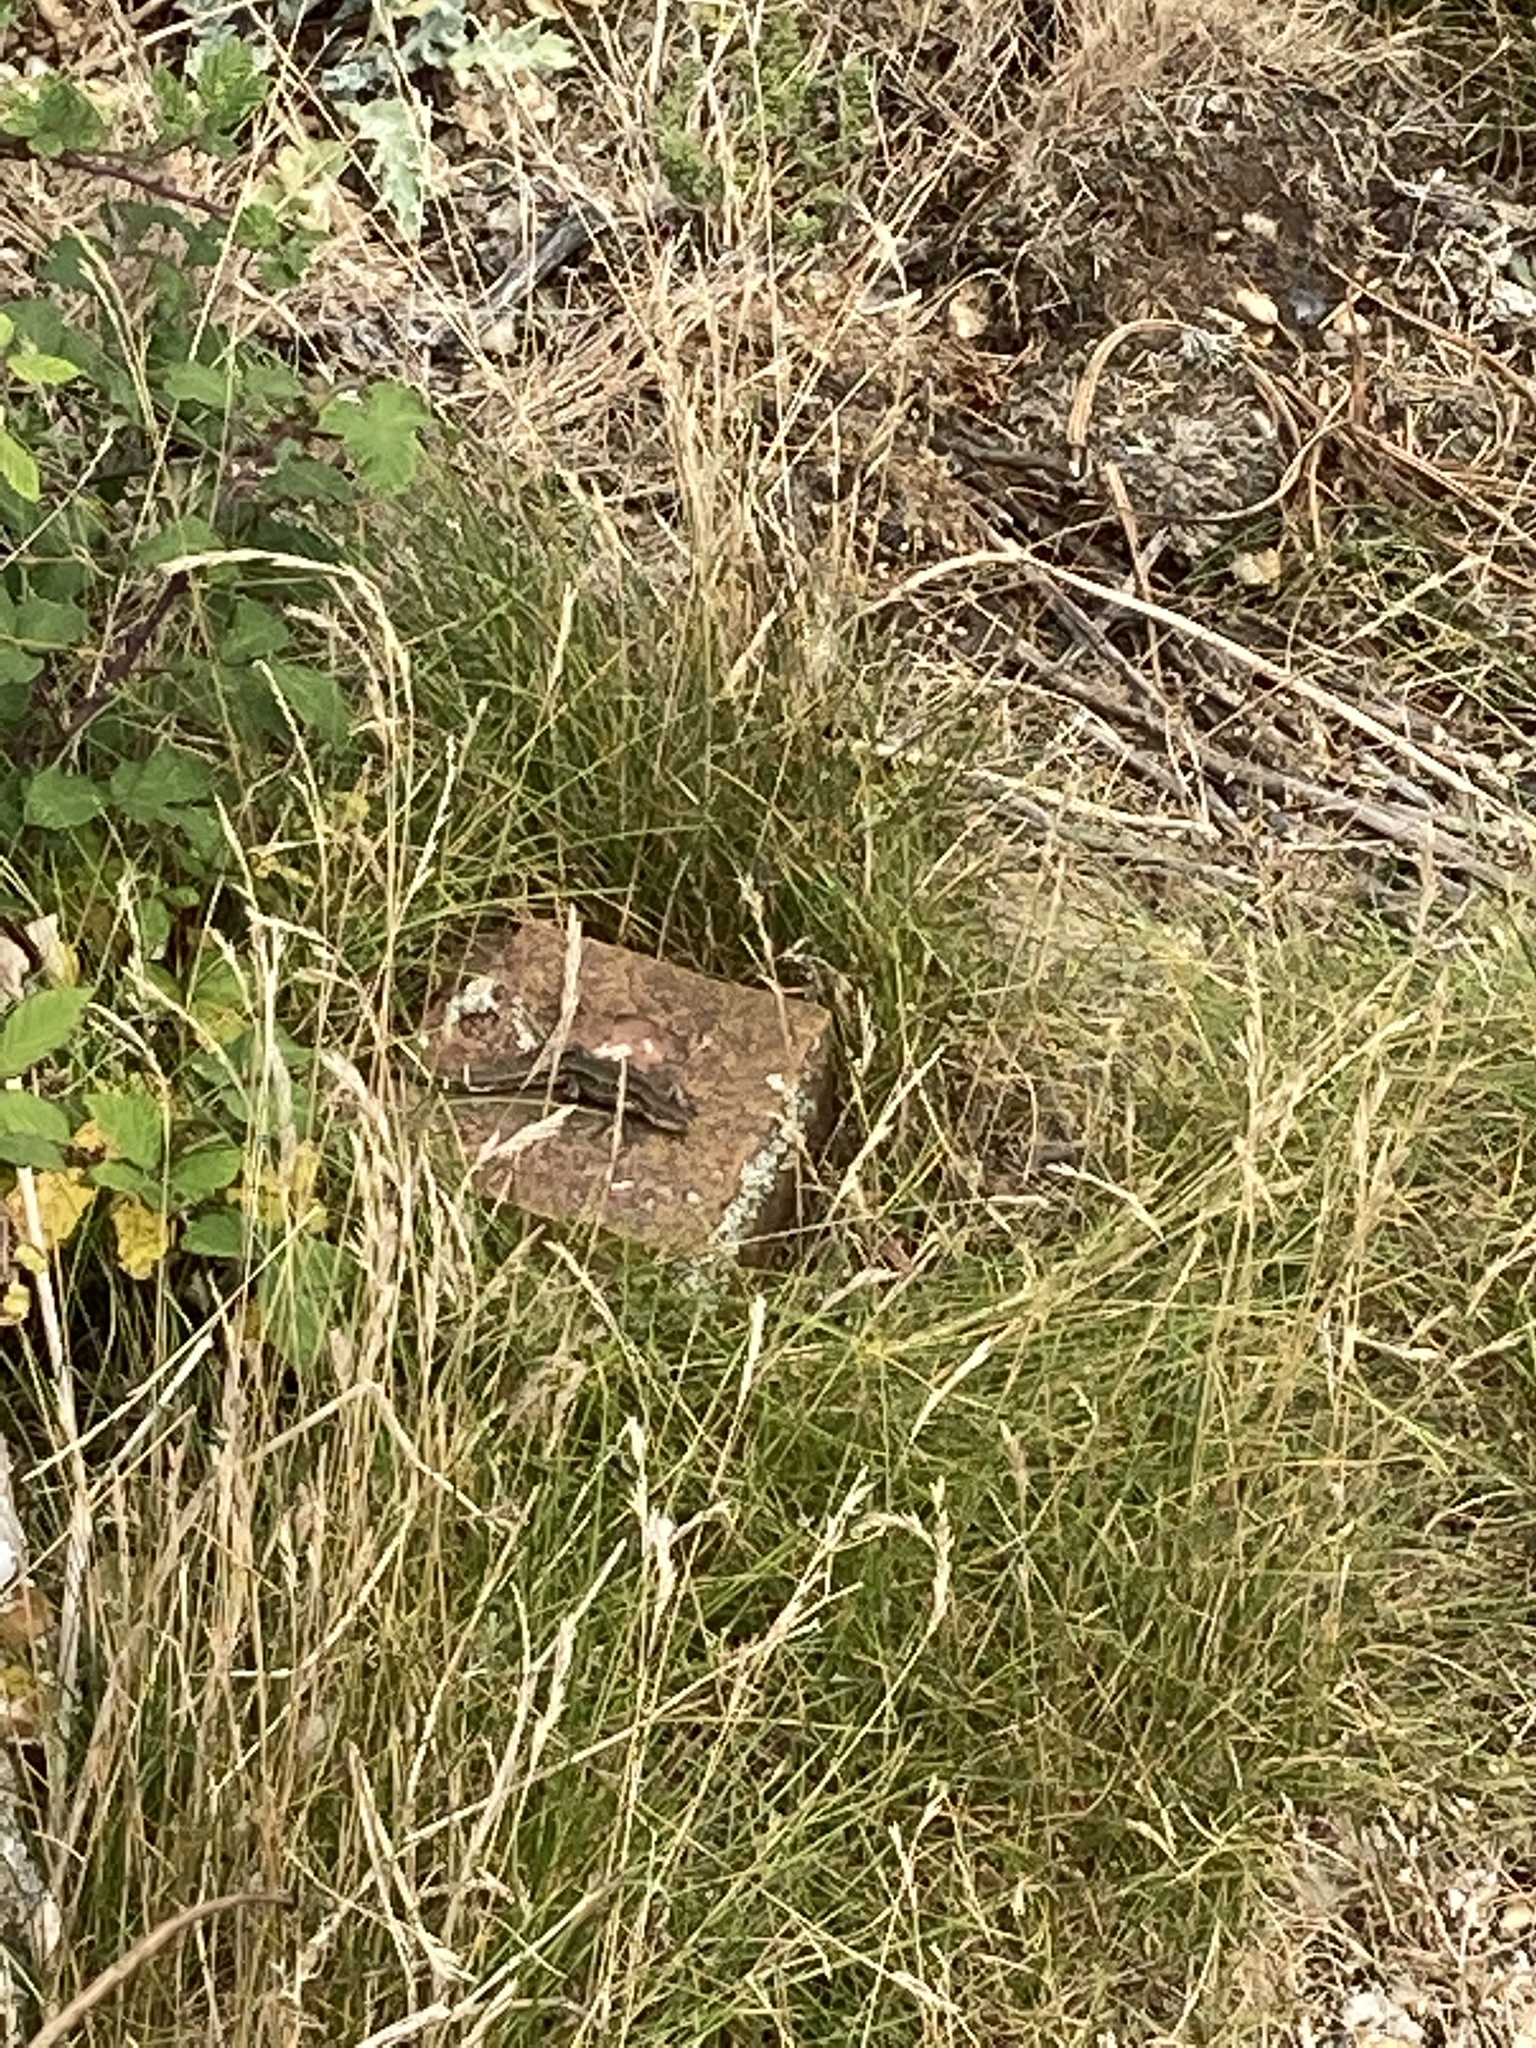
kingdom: Animalia
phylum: Chordata
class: Squamata
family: Lacertidae
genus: Zootoca
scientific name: Zootoca vivipara
